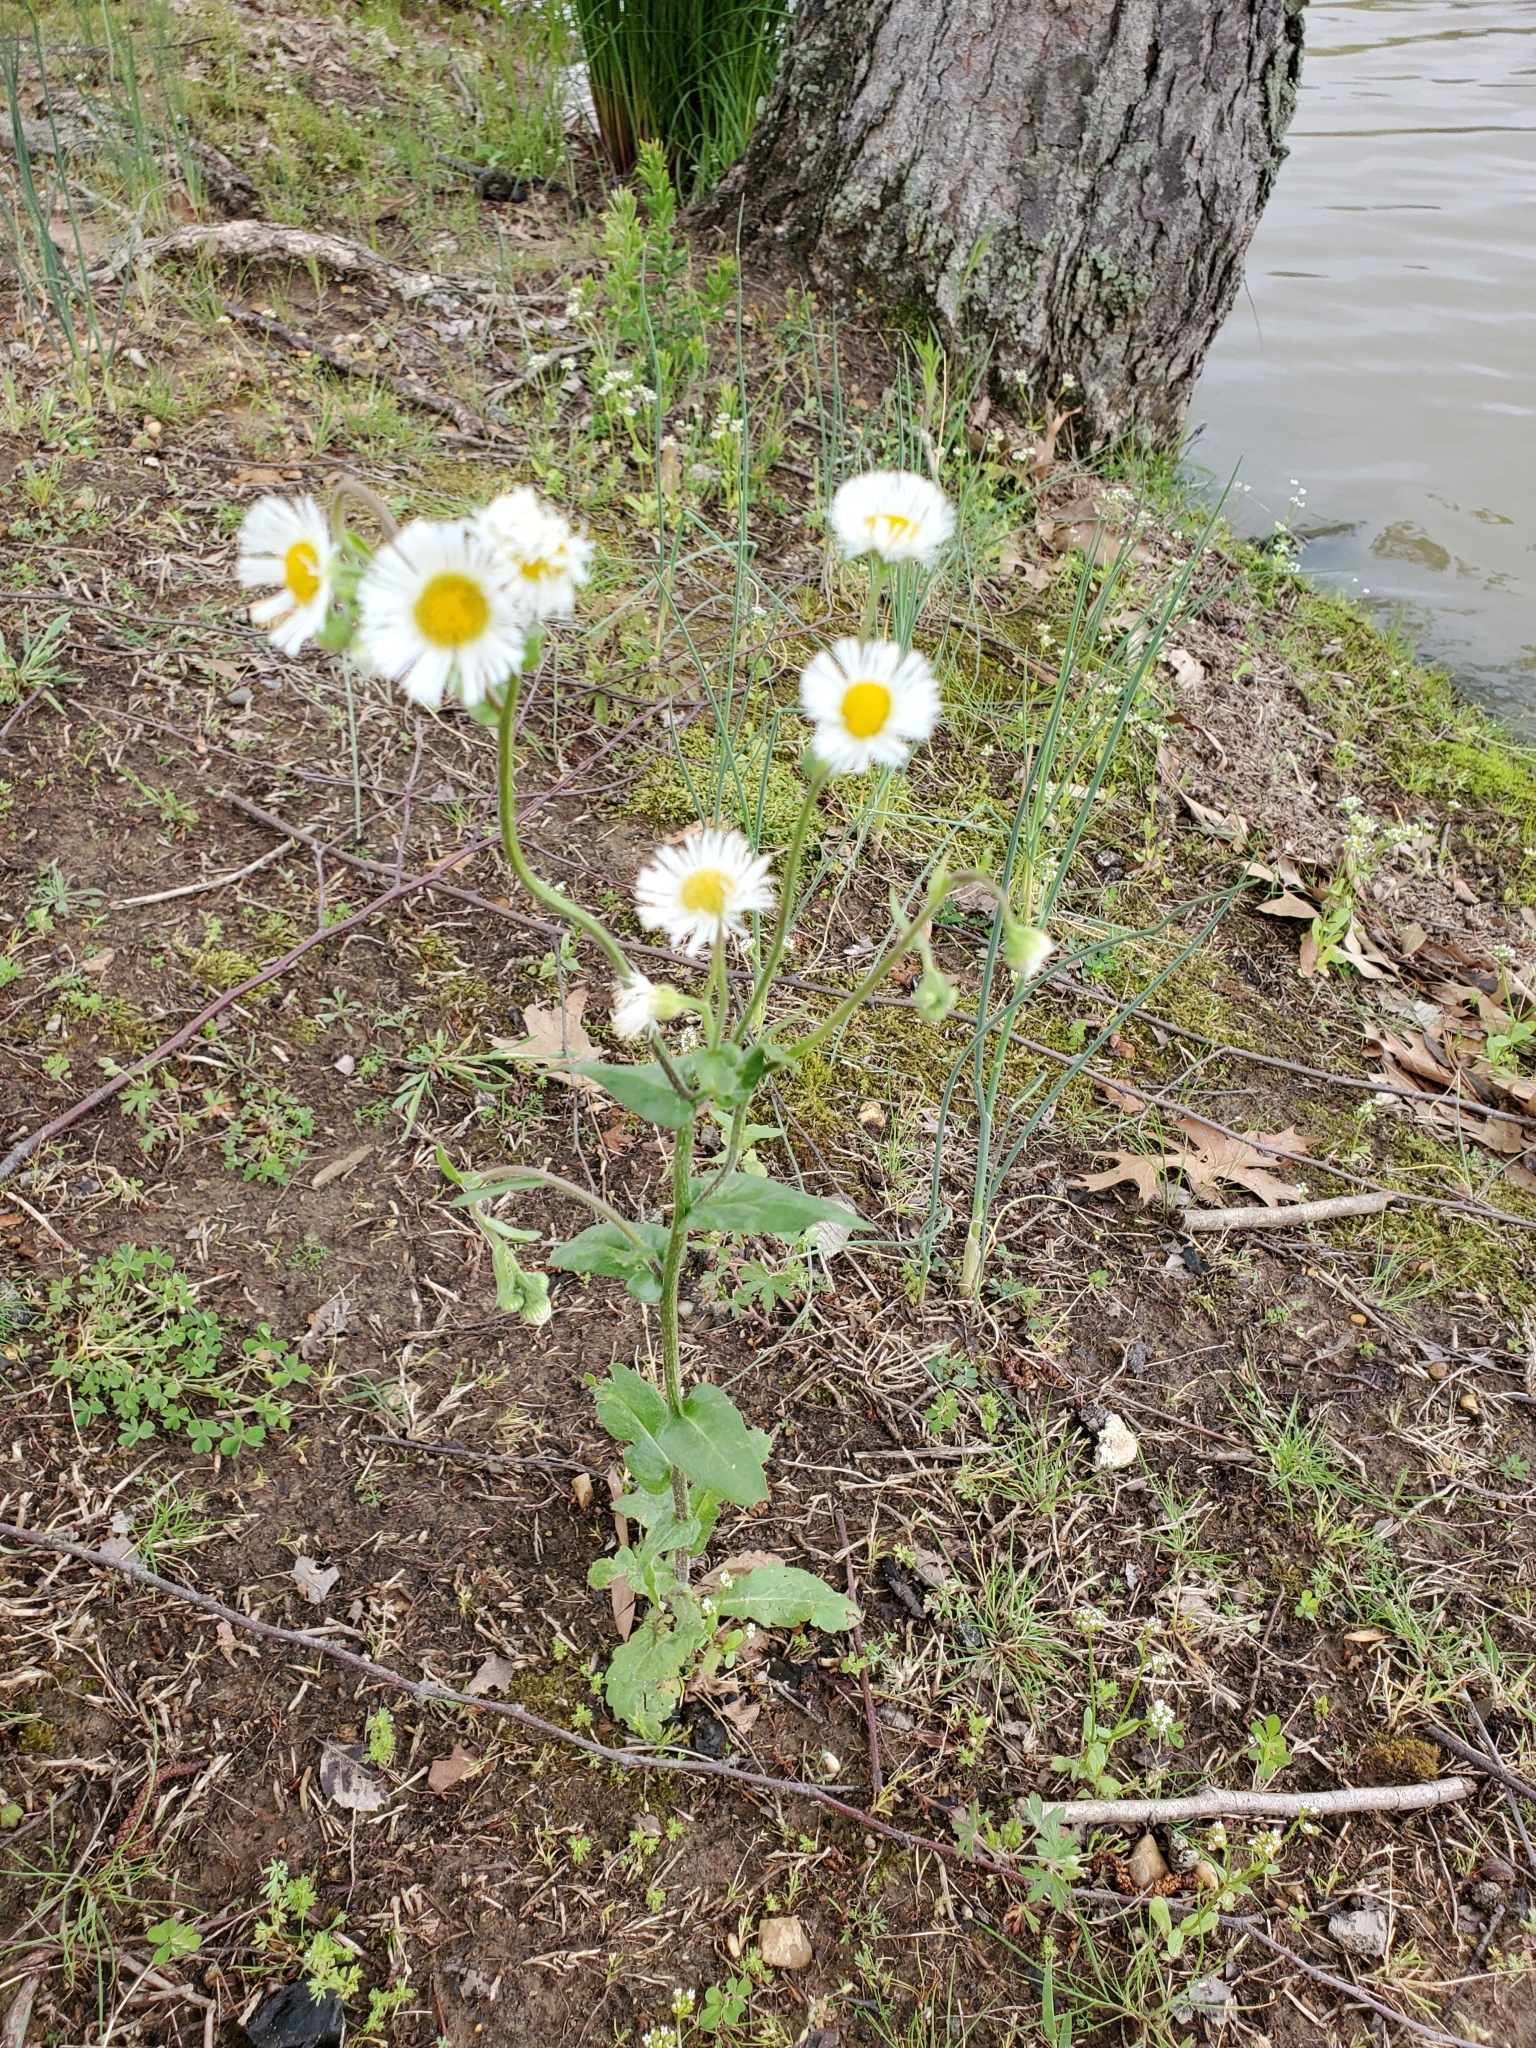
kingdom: Plantae
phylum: Tracheophyta
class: Magnoliopsida
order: Asterales
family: Asteraceae
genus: Erigeron
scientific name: Erigeron philadelphicus
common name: Robin's-plantain
